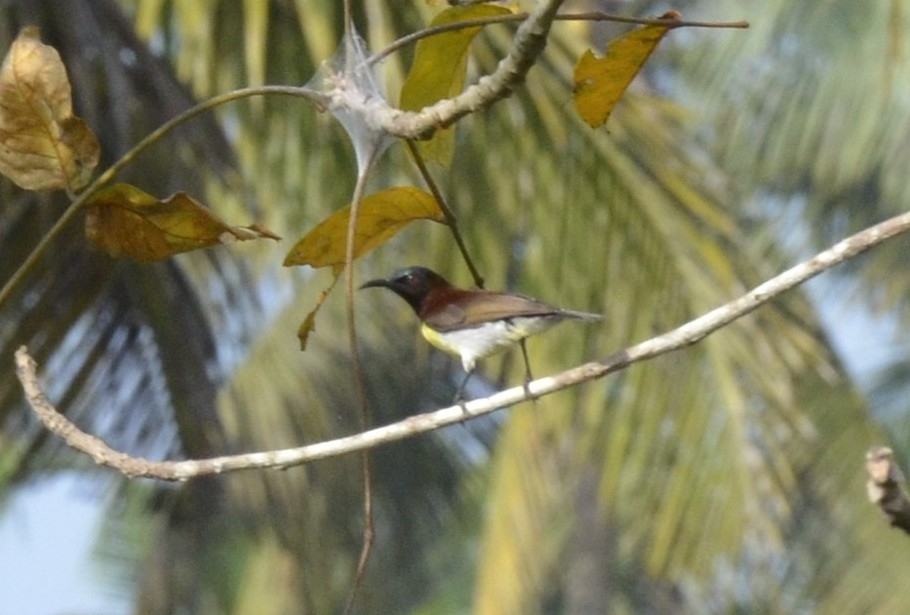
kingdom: Animalia
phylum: Chordata
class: Aves
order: Passeriformes
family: Nectariniidae
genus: Leptocoma
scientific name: Leptocoma zeylonica
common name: Purple-rumped sunbird
